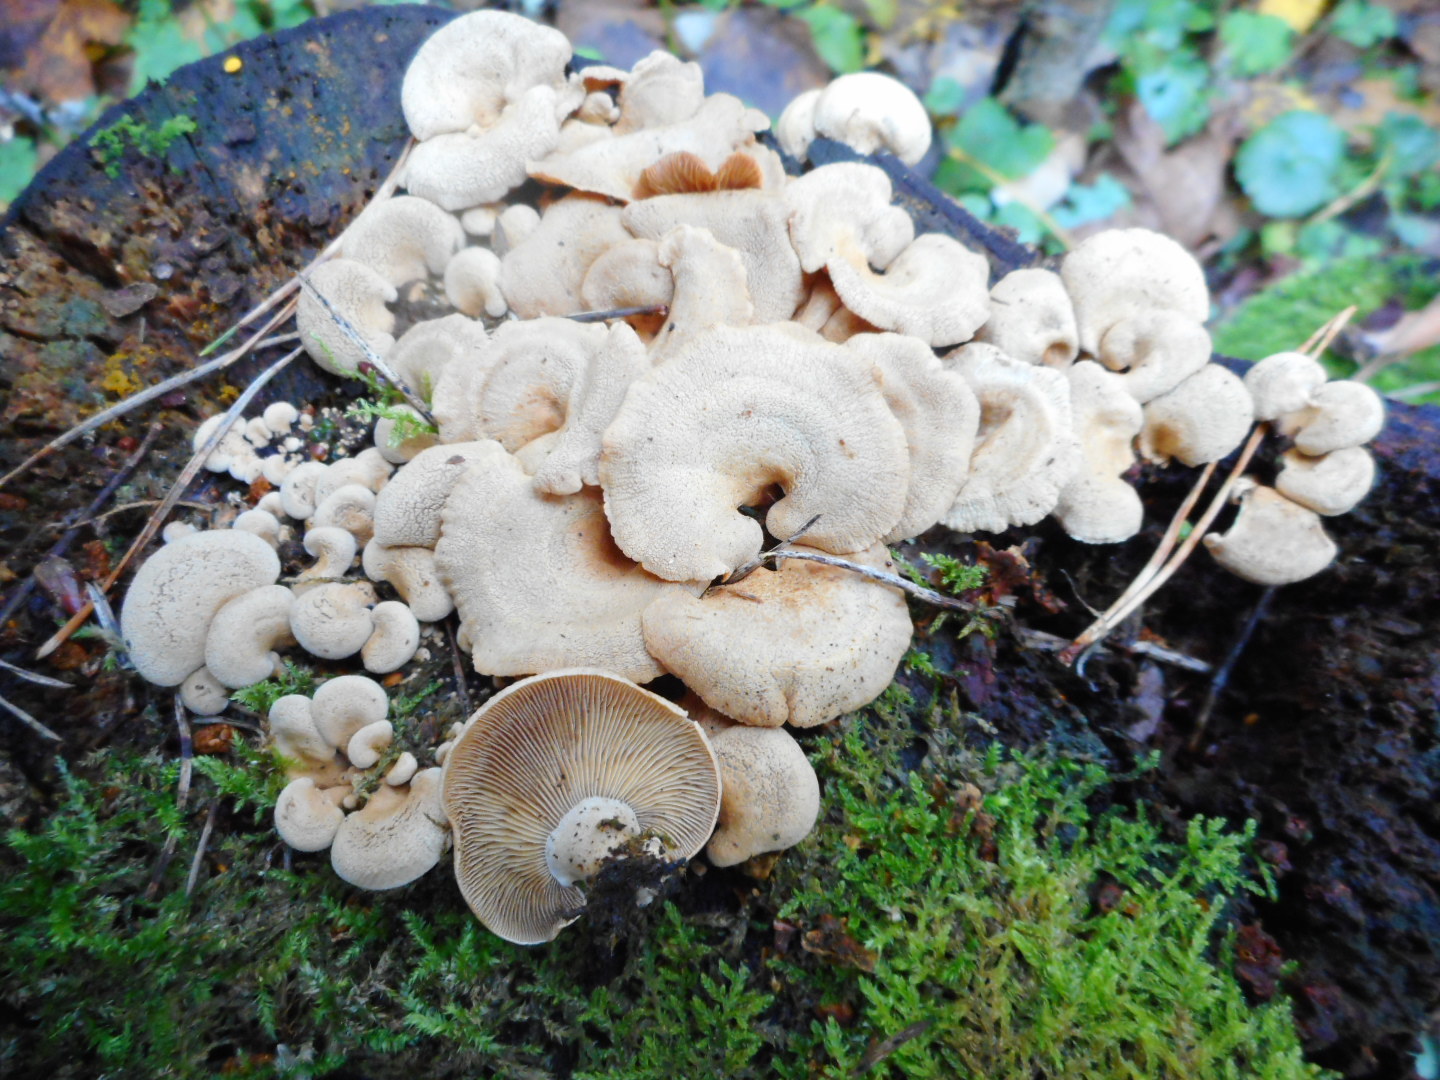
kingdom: Fungi
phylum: Basidiomycota
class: Agaricomycetes
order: Agaricales
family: Mycenaceae
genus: Panellus
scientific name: Panellus stipticus
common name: Bitter oysterling
